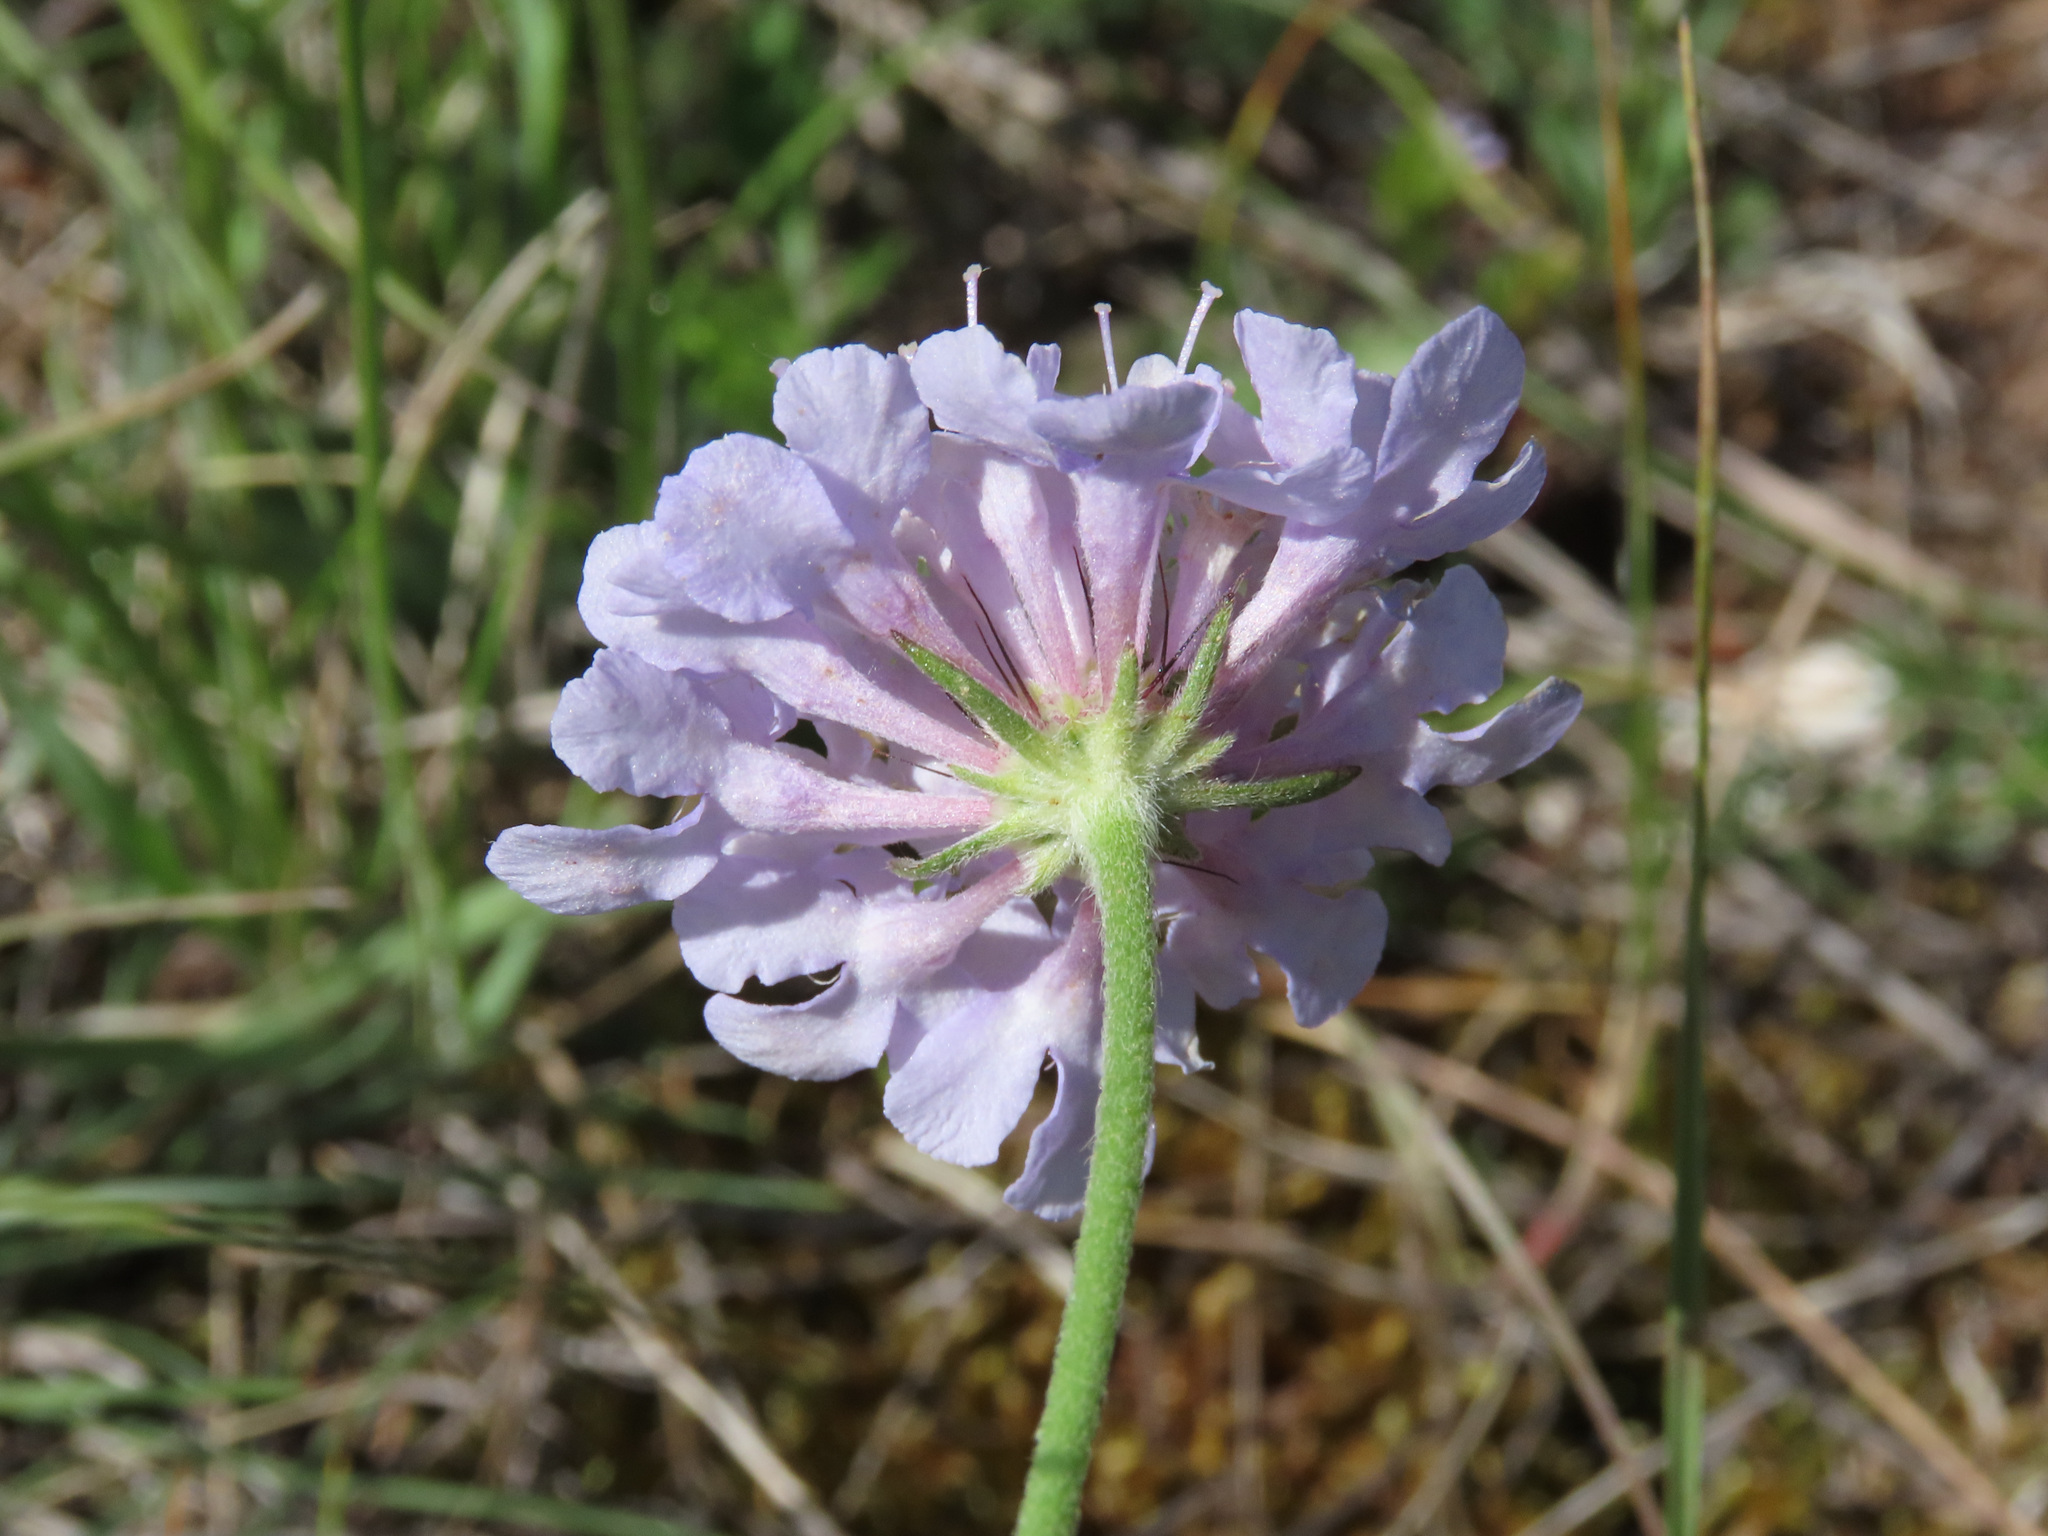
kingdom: Plantae
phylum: Tracheophyta
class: Magnoliopsida
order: Dipsacales
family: Caprifoliaceae
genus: Scabiosa
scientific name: Scabiosa triandra
